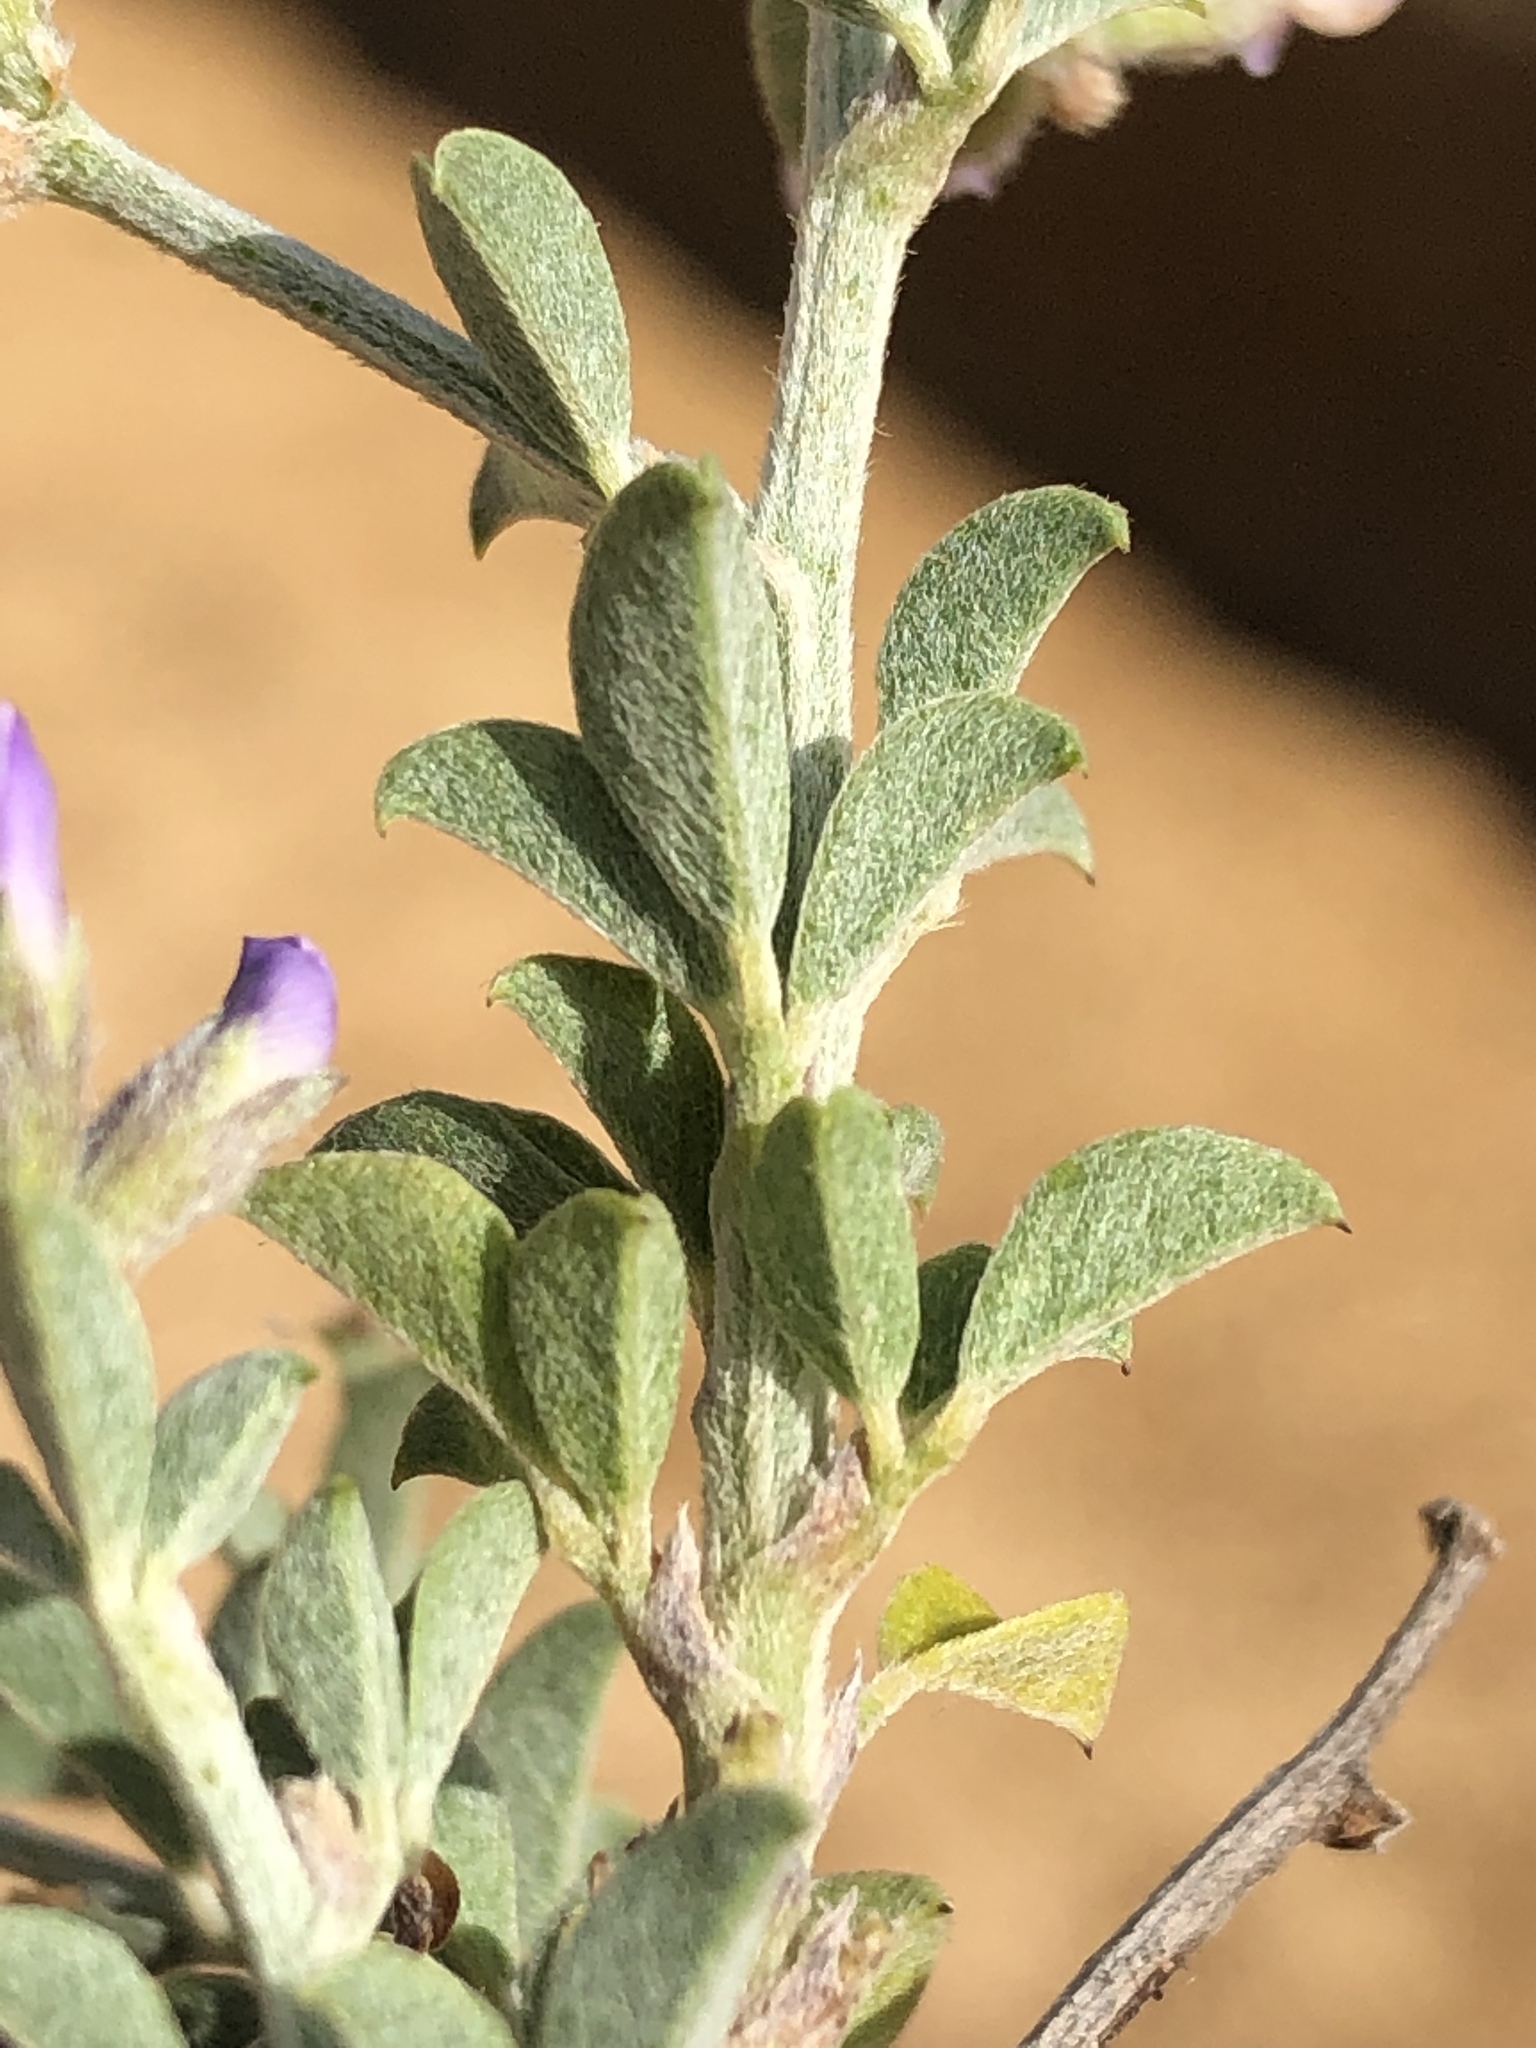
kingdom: Plantae
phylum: Tracheophyta
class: Magnoliopsida
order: Fabales
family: Fabaceae
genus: Psoralea
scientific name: Psoralea hirta
